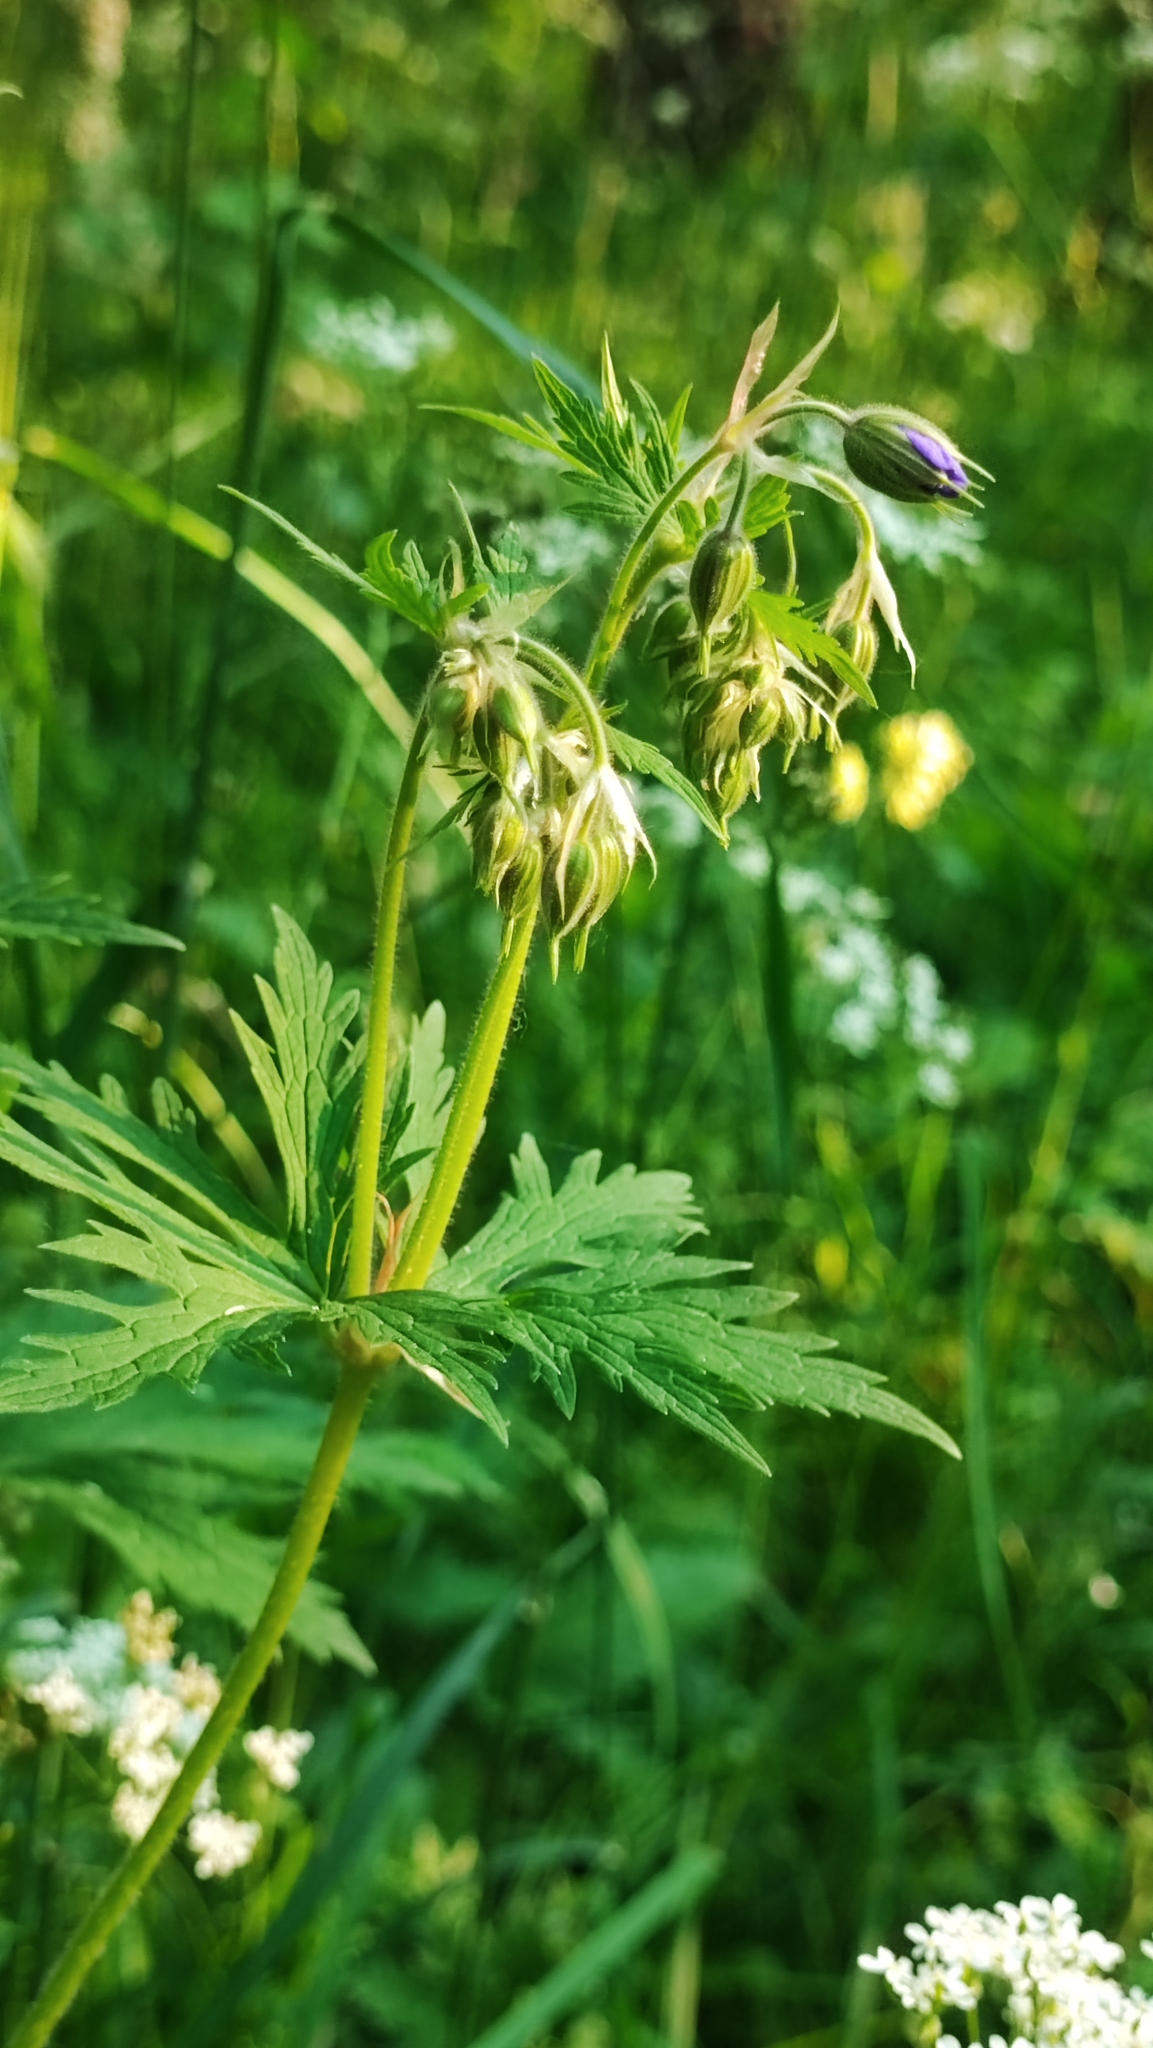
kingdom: Plantae
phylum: Tracheophyta
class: Magnoliopsida
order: Geraniales
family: Geraniaceae
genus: Geranium
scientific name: Geranium pratense
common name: Meadow crane's-bill
